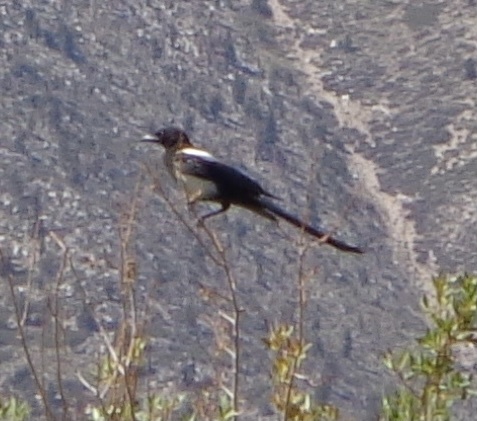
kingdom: Animalia
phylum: Chordata
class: Aves
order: Passeriformes
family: Corvidae
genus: Pica
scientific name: Pica hudsonia
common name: Black-billed magpie
